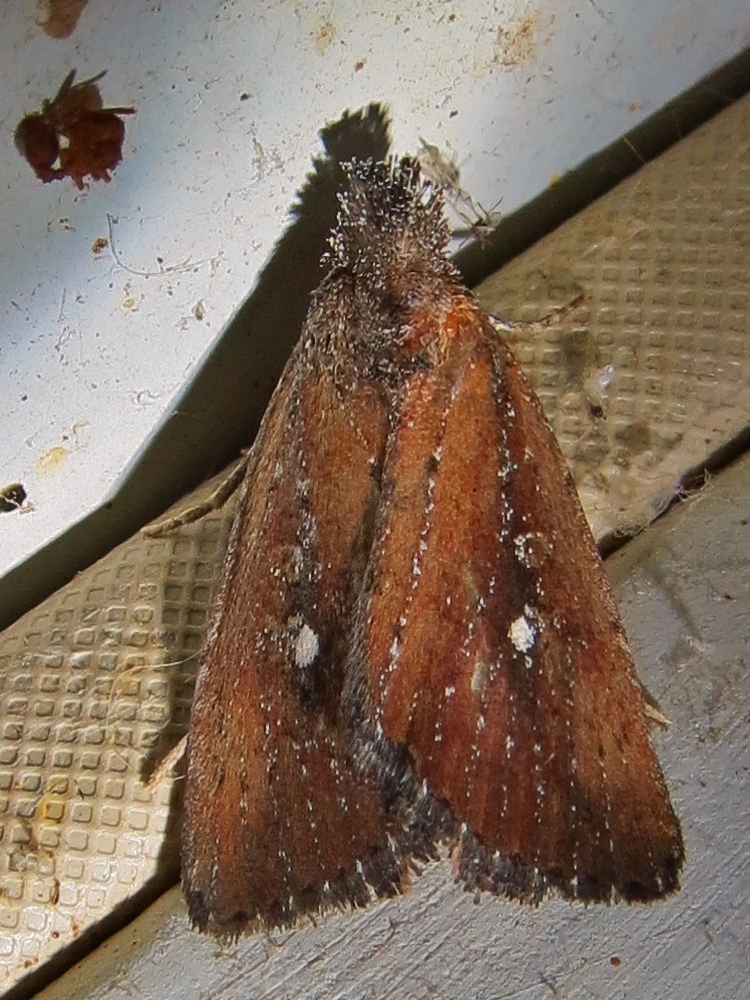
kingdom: Animalia
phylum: Arthropoda
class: Insecta
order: Lepidoptera
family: Noctuidae
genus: Condica
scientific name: Condica videns
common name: White-dotted groundling
